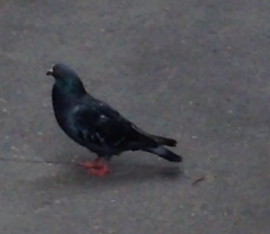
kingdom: Animalia
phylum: Chordata
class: Aves
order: Columbiformes
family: Columbidae
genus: Columba
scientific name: Columba livia
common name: Rock pigeon
